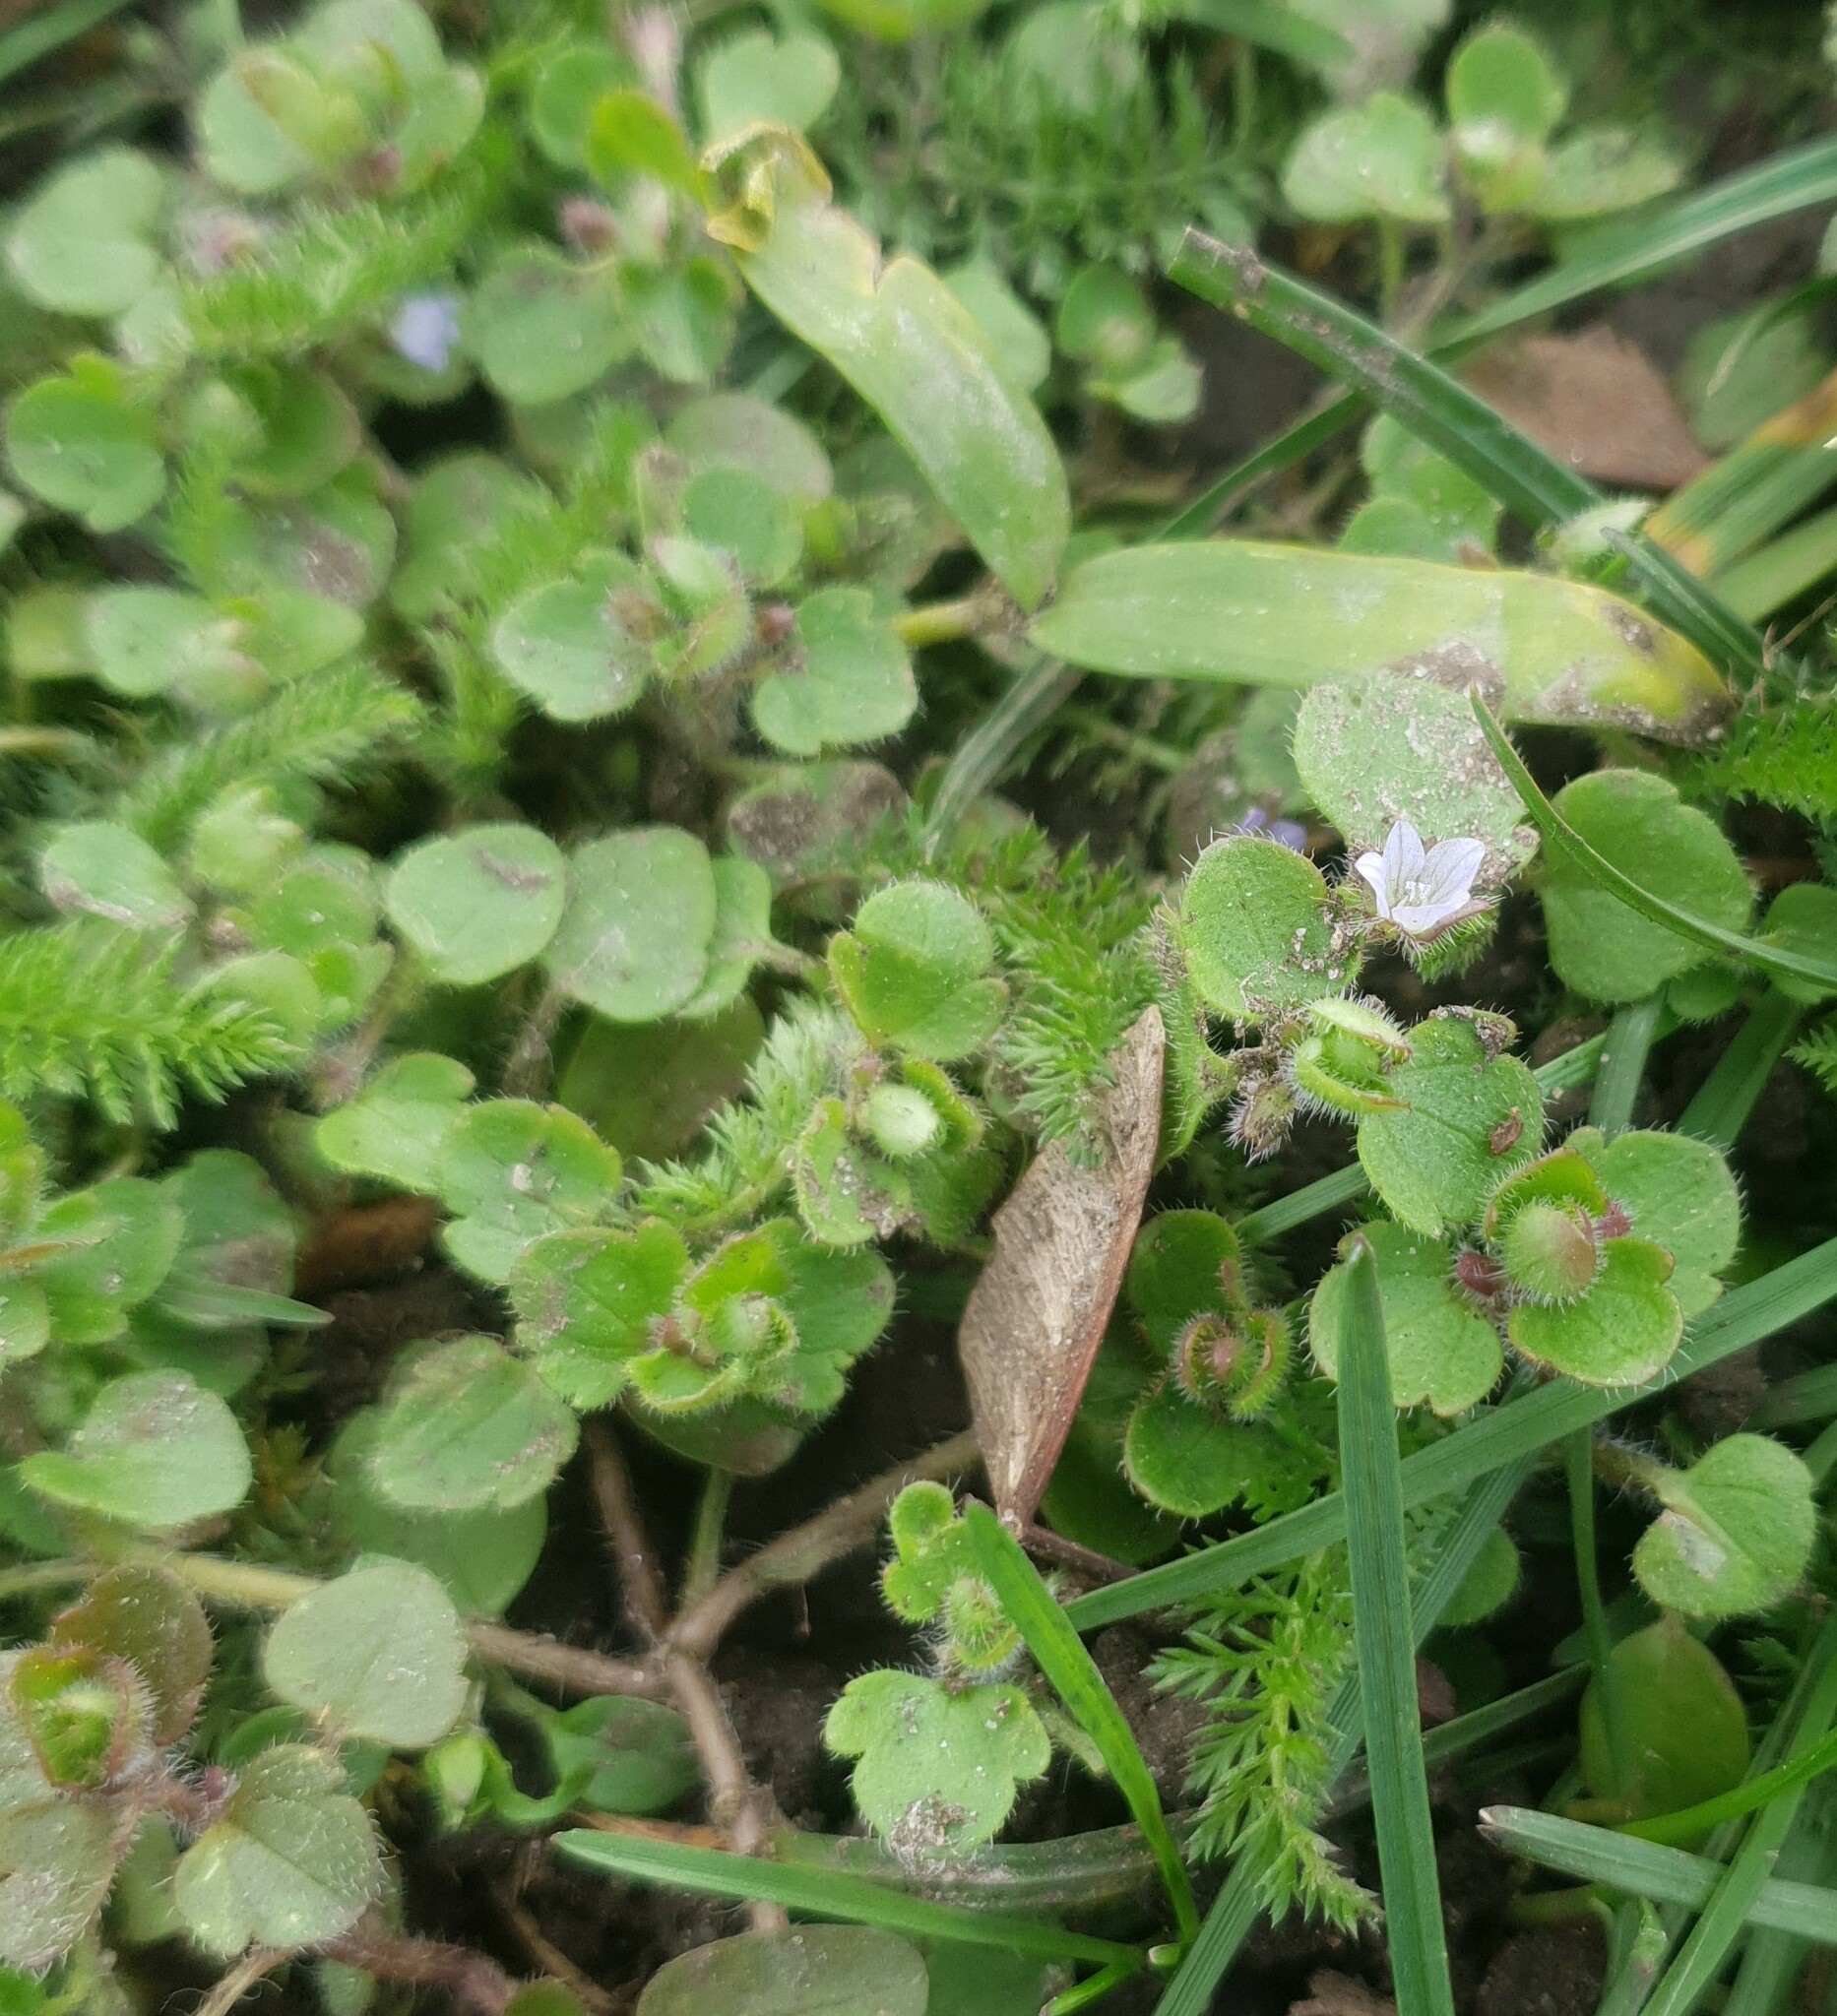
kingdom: Plantae
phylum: Tracheophyta
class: Magnoliopsida
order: Lamiales
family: Plantaginaceae
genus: Veronica
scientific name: Veronica sublobata
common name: False ivy-leaved speedwell
